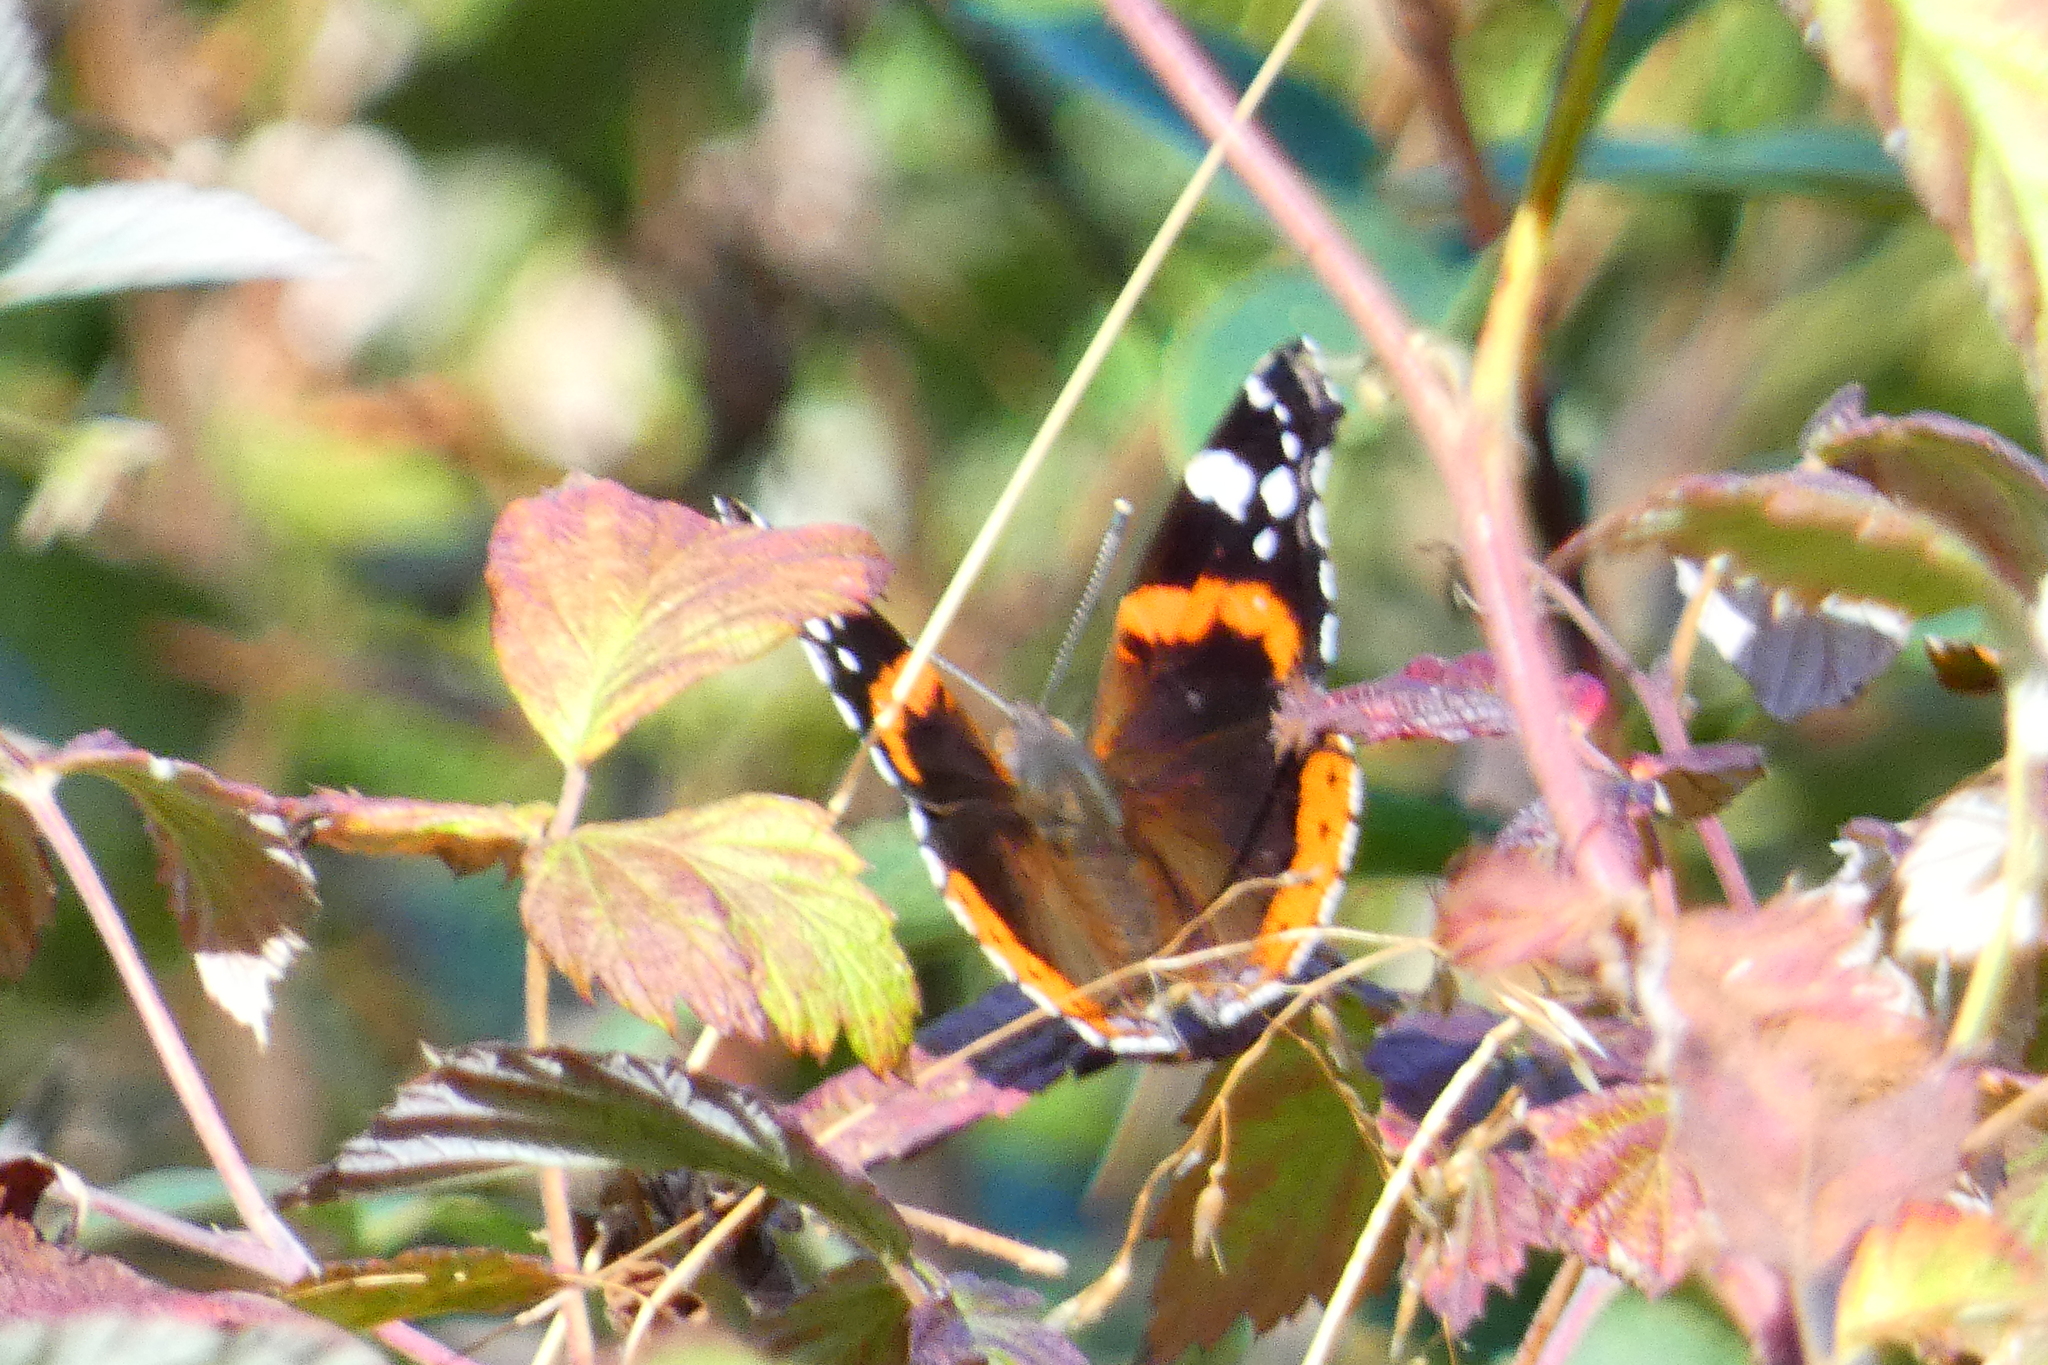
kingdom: Animalia
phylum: Arthropoda
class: Insecta
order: Lepidoptera
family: Nymphalidae
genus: Vanessa
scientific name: Vanessa atalanta
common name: Red admiral
